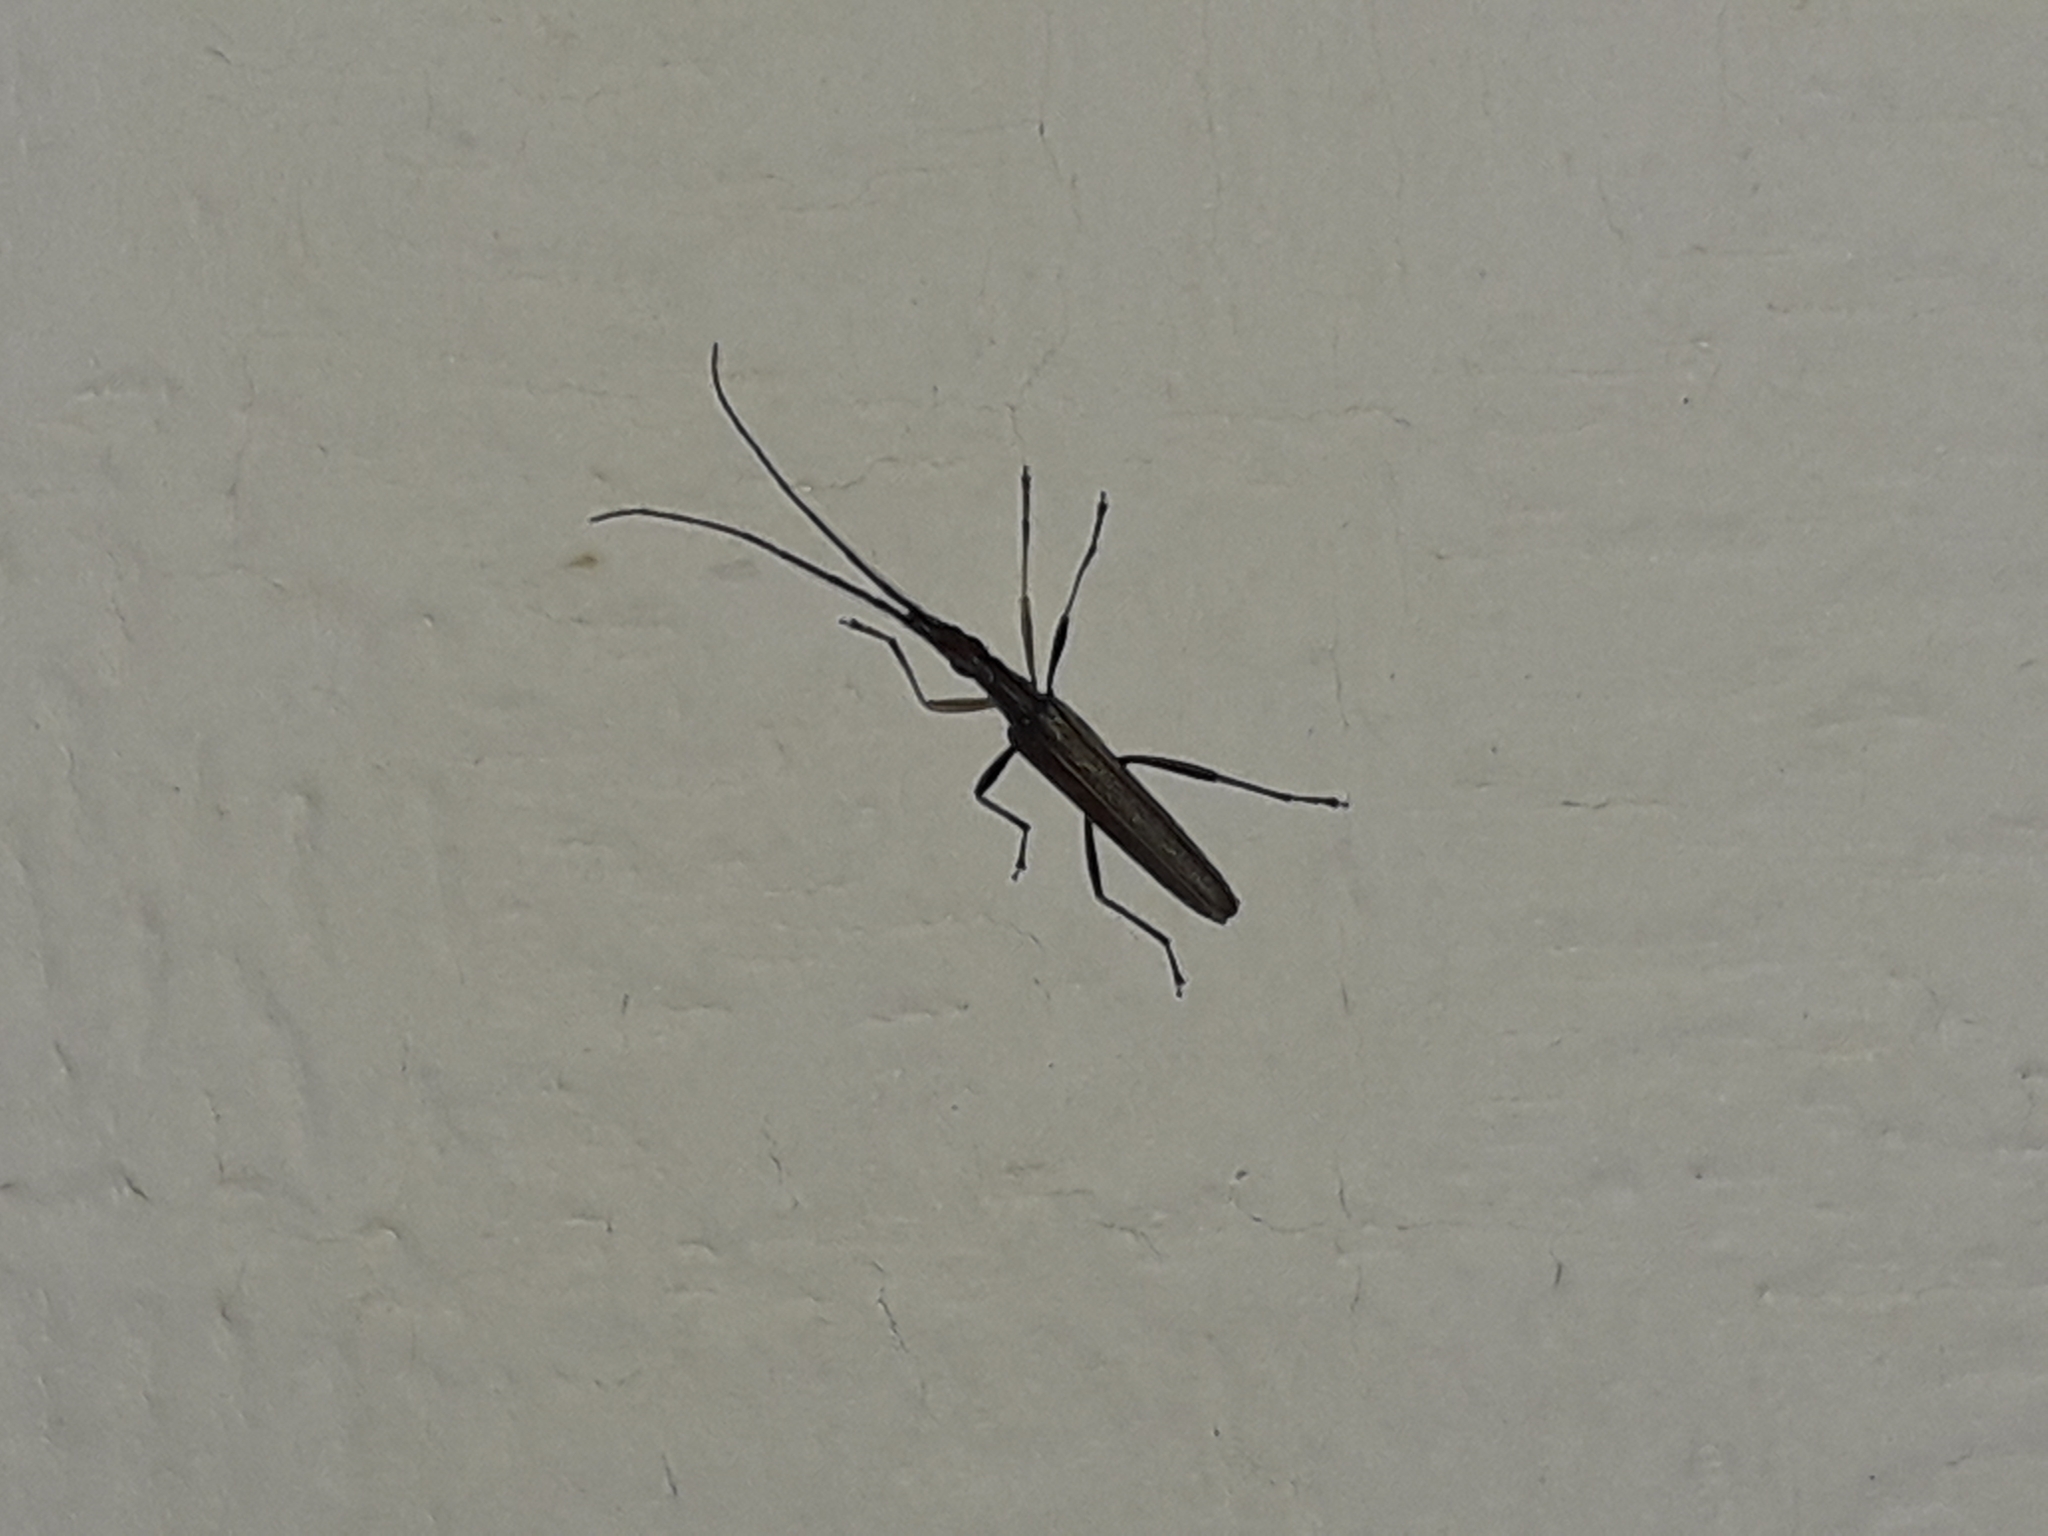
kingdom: Animalia
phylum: Arthropoda
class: Insecta
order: Coleoptera
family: Cerambycidae
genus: Stenopotes
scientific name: Stenopotes pallidus
